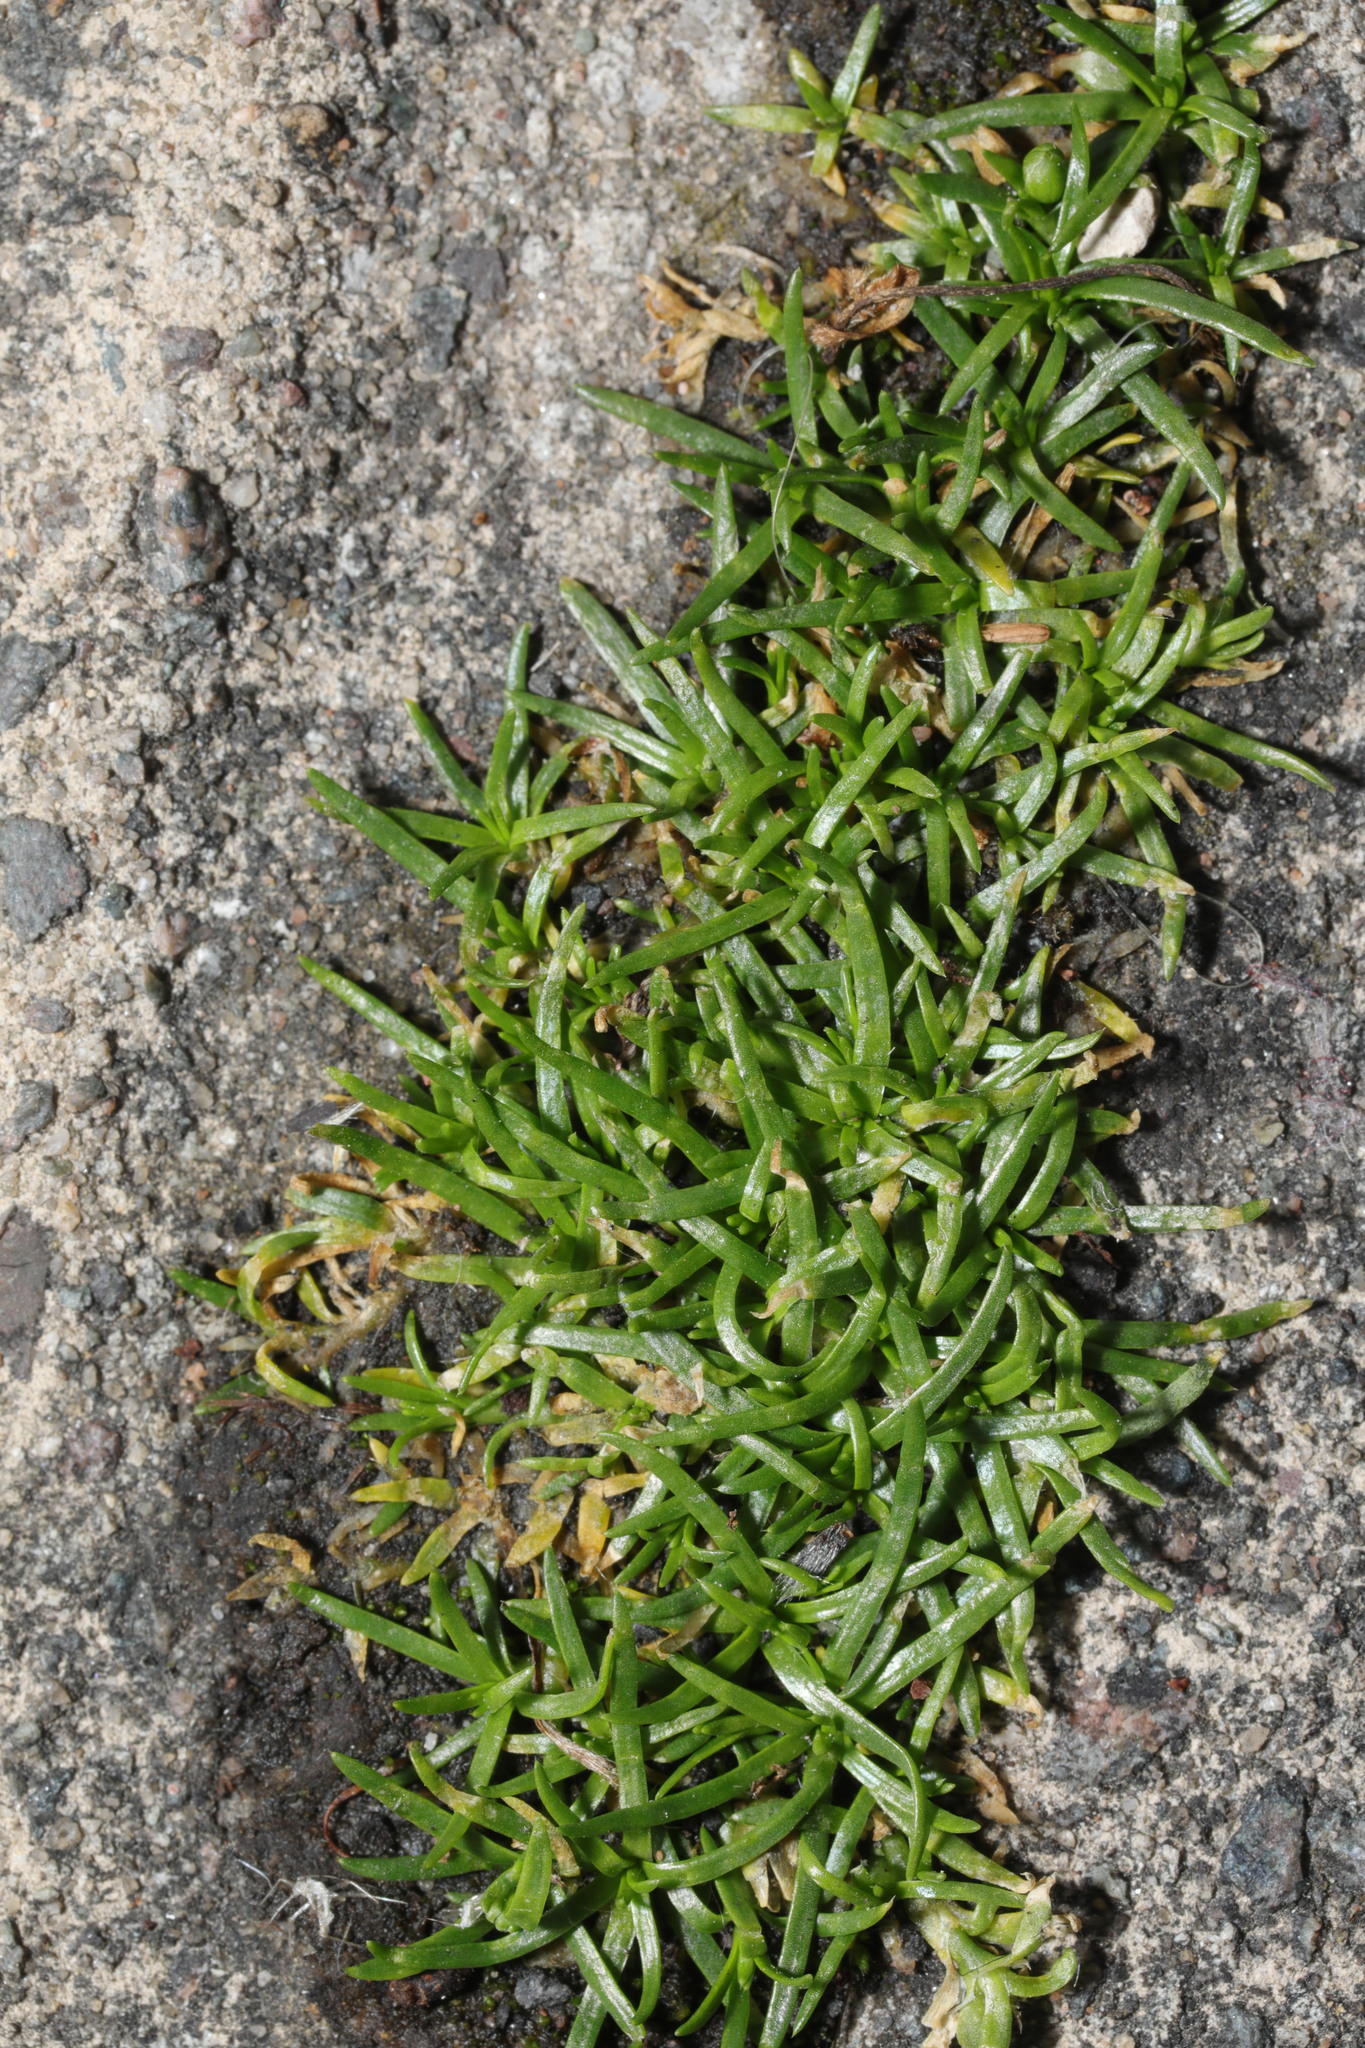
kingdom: Plantae
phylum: Tracheophyta
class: Magnoliopsida
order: Caryophyllales
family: Caryophyllaceae
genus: Sagina
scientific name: Sagina procumbens
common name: Procumbent pearlwort
